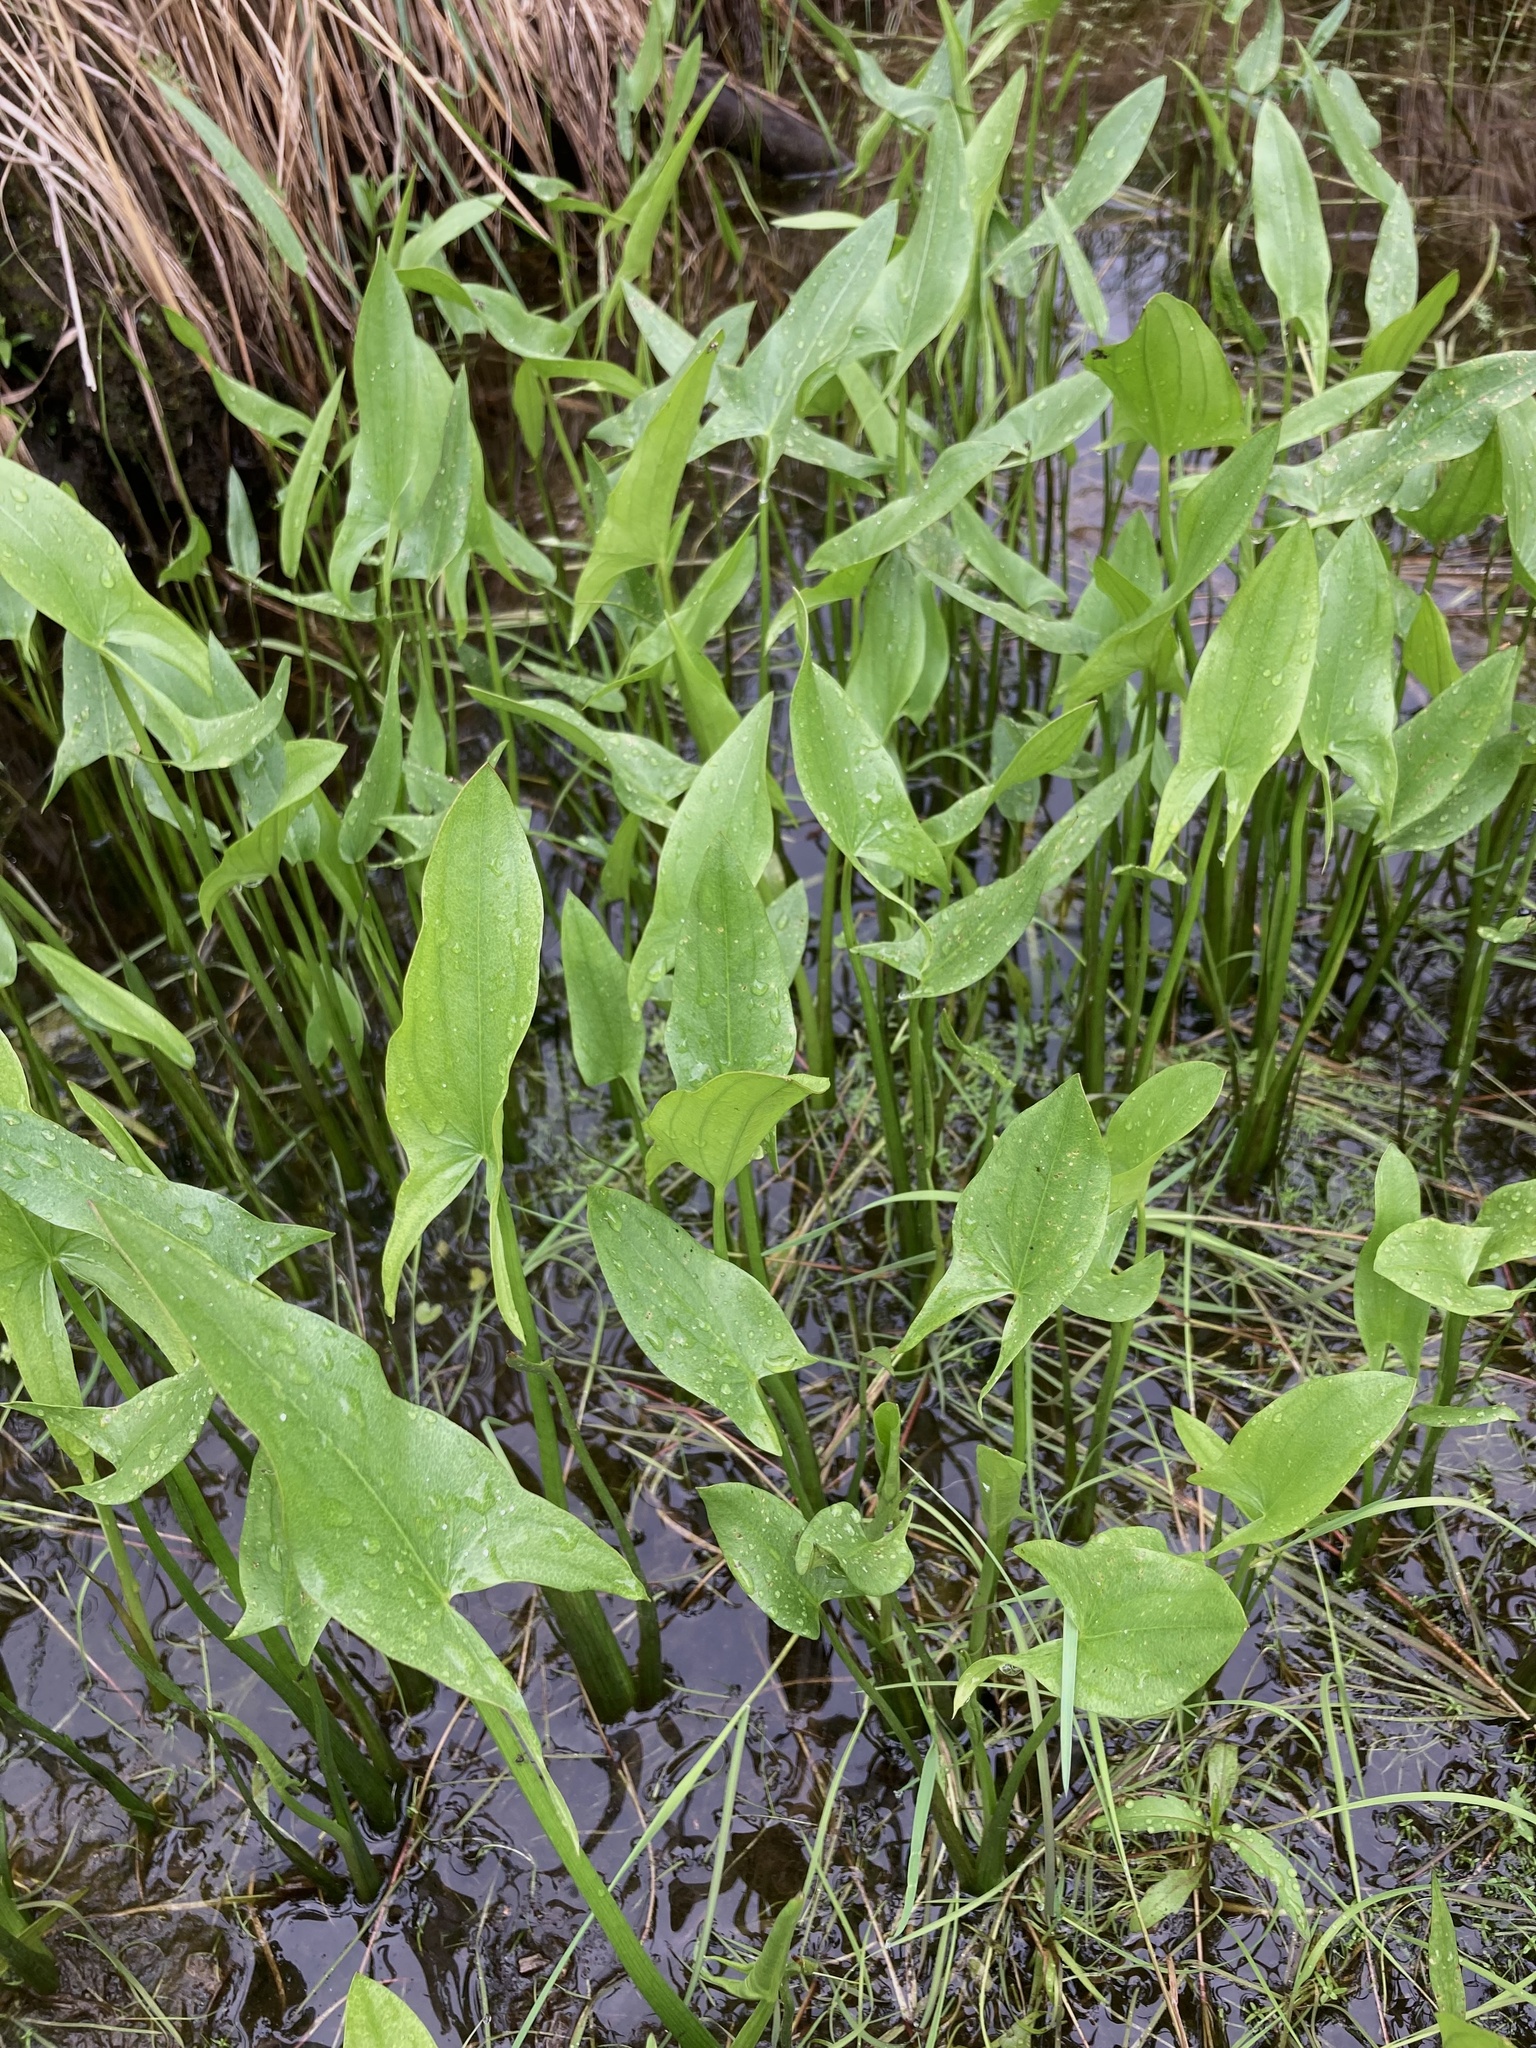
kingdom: Plantae
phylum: Tracheophyta
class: Liliopsida
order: Alismatales
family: Alismataceae
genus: Sagittaria
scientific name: Sagittaria latifolia
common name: Duck-potato
